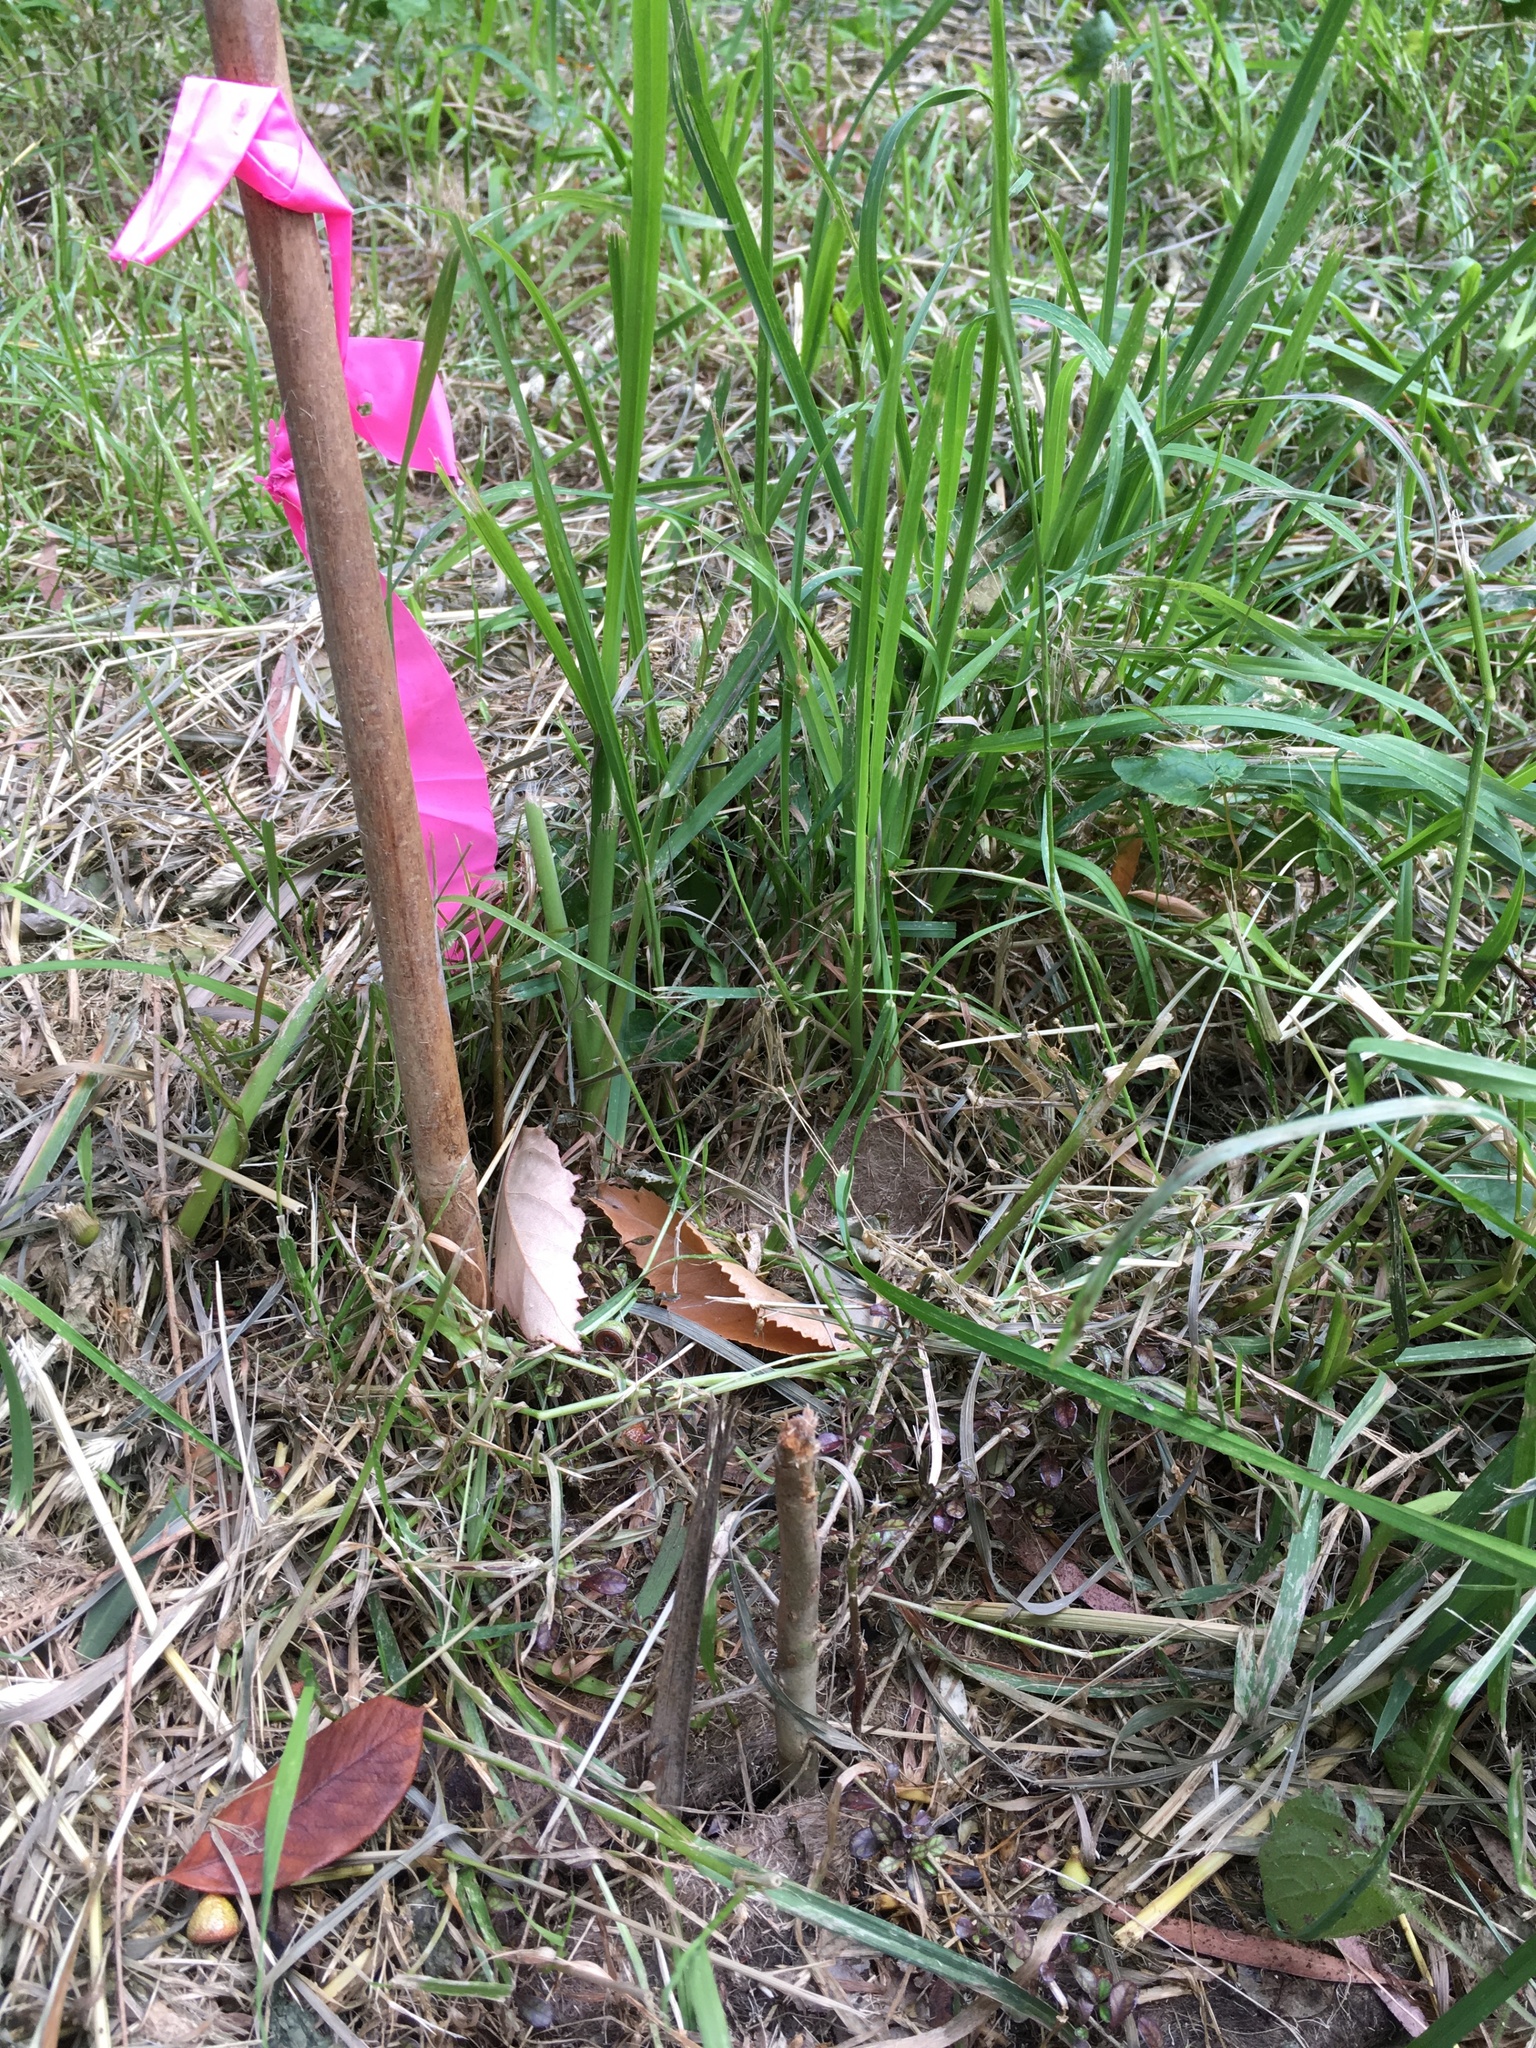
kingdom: Plantae
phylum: Tracheophyta
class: Pinopsida
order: Pinales
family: Podocarpaceae
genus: Podocarpus
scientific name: Podocarpus totara
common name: Totara
